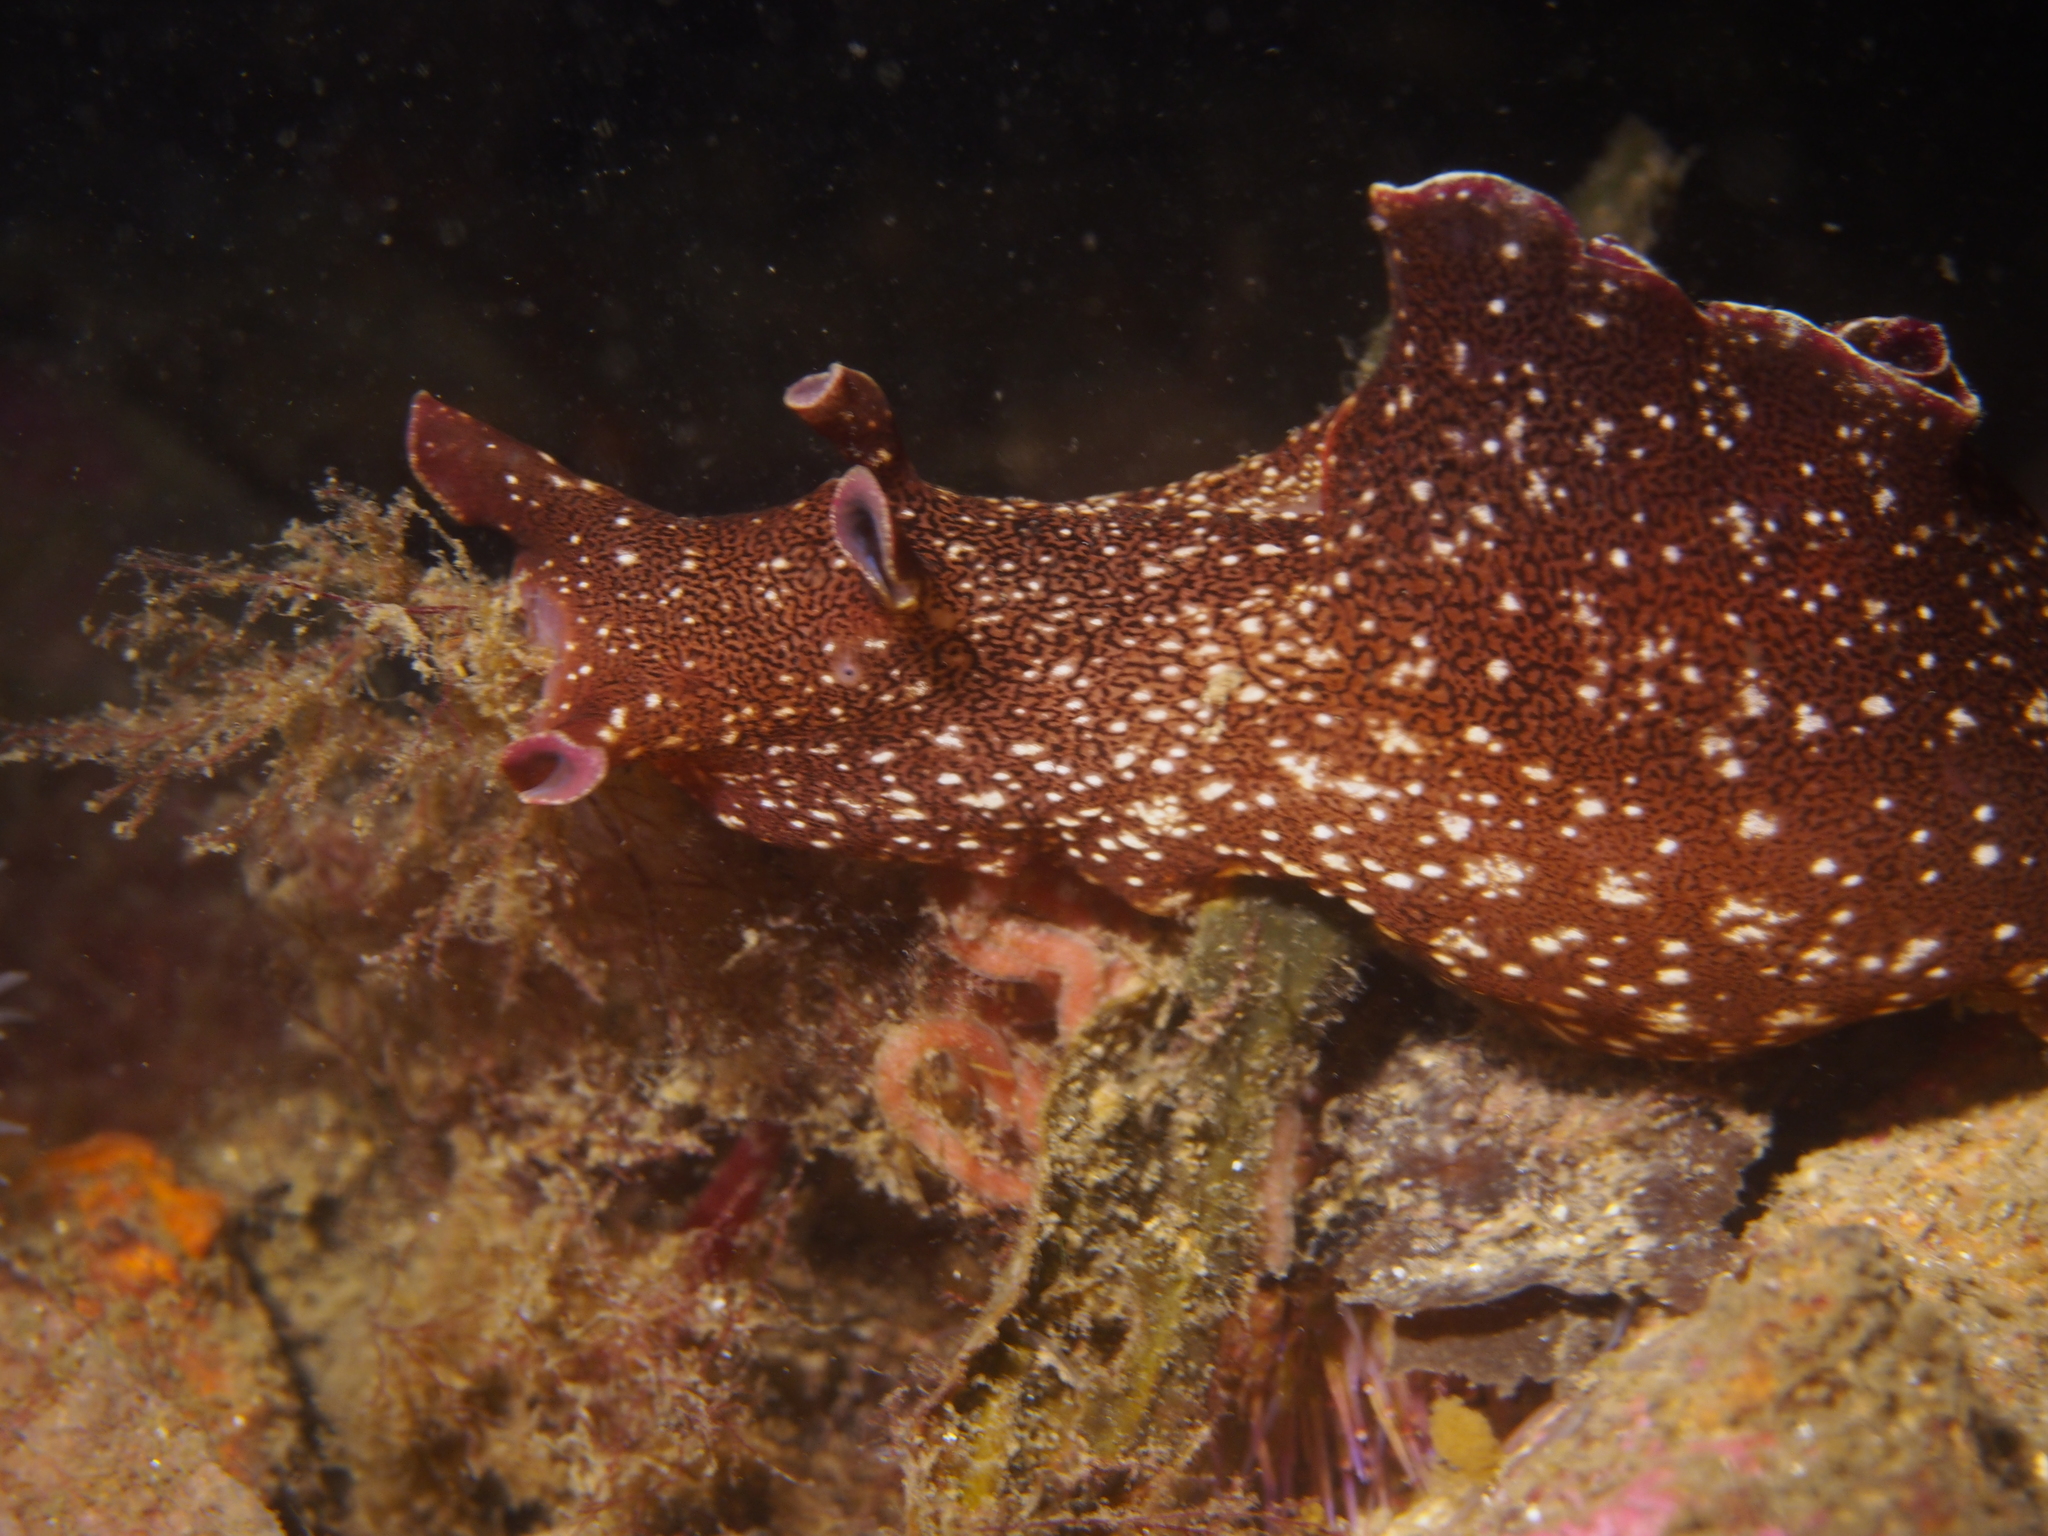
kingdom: Animalia
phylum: Mollusca
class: Gastropoda
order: Aplysiida
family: Aplysiidae
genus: Aplysia
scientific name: Aplysia punctata
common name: Common sea hare
